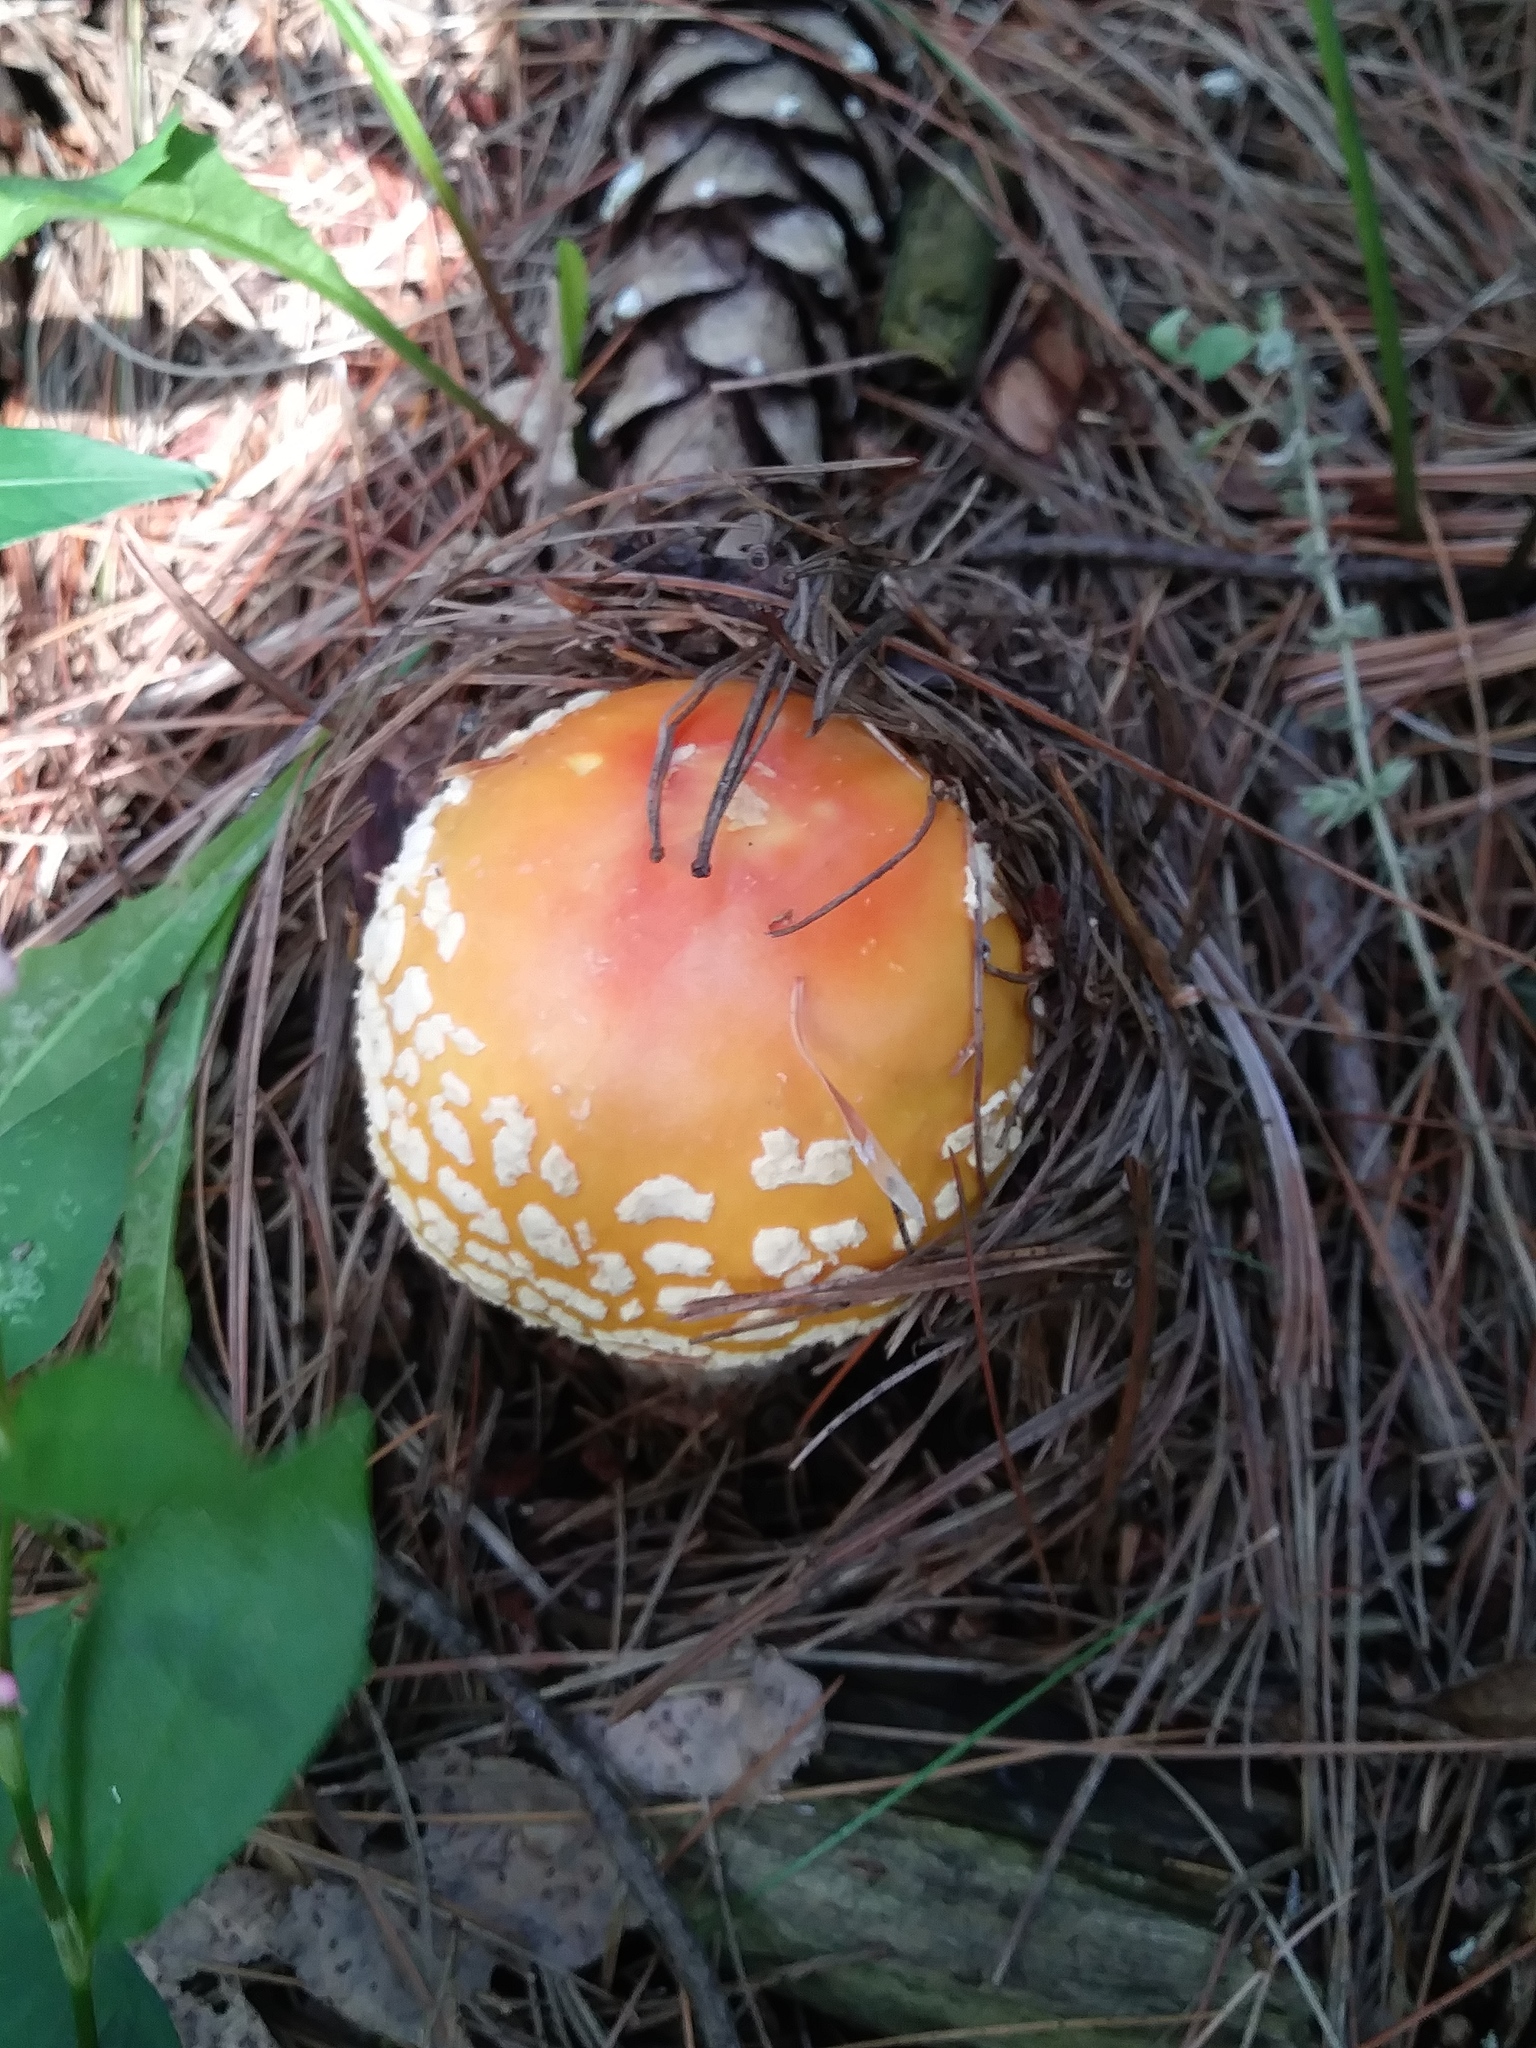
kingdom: Fungi
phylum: Basidiomycota
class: Agaricomycetes
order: Agaricales
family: Amanitaceae
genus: Amanita
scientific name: Amanita muscaria
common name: Fly agaric
